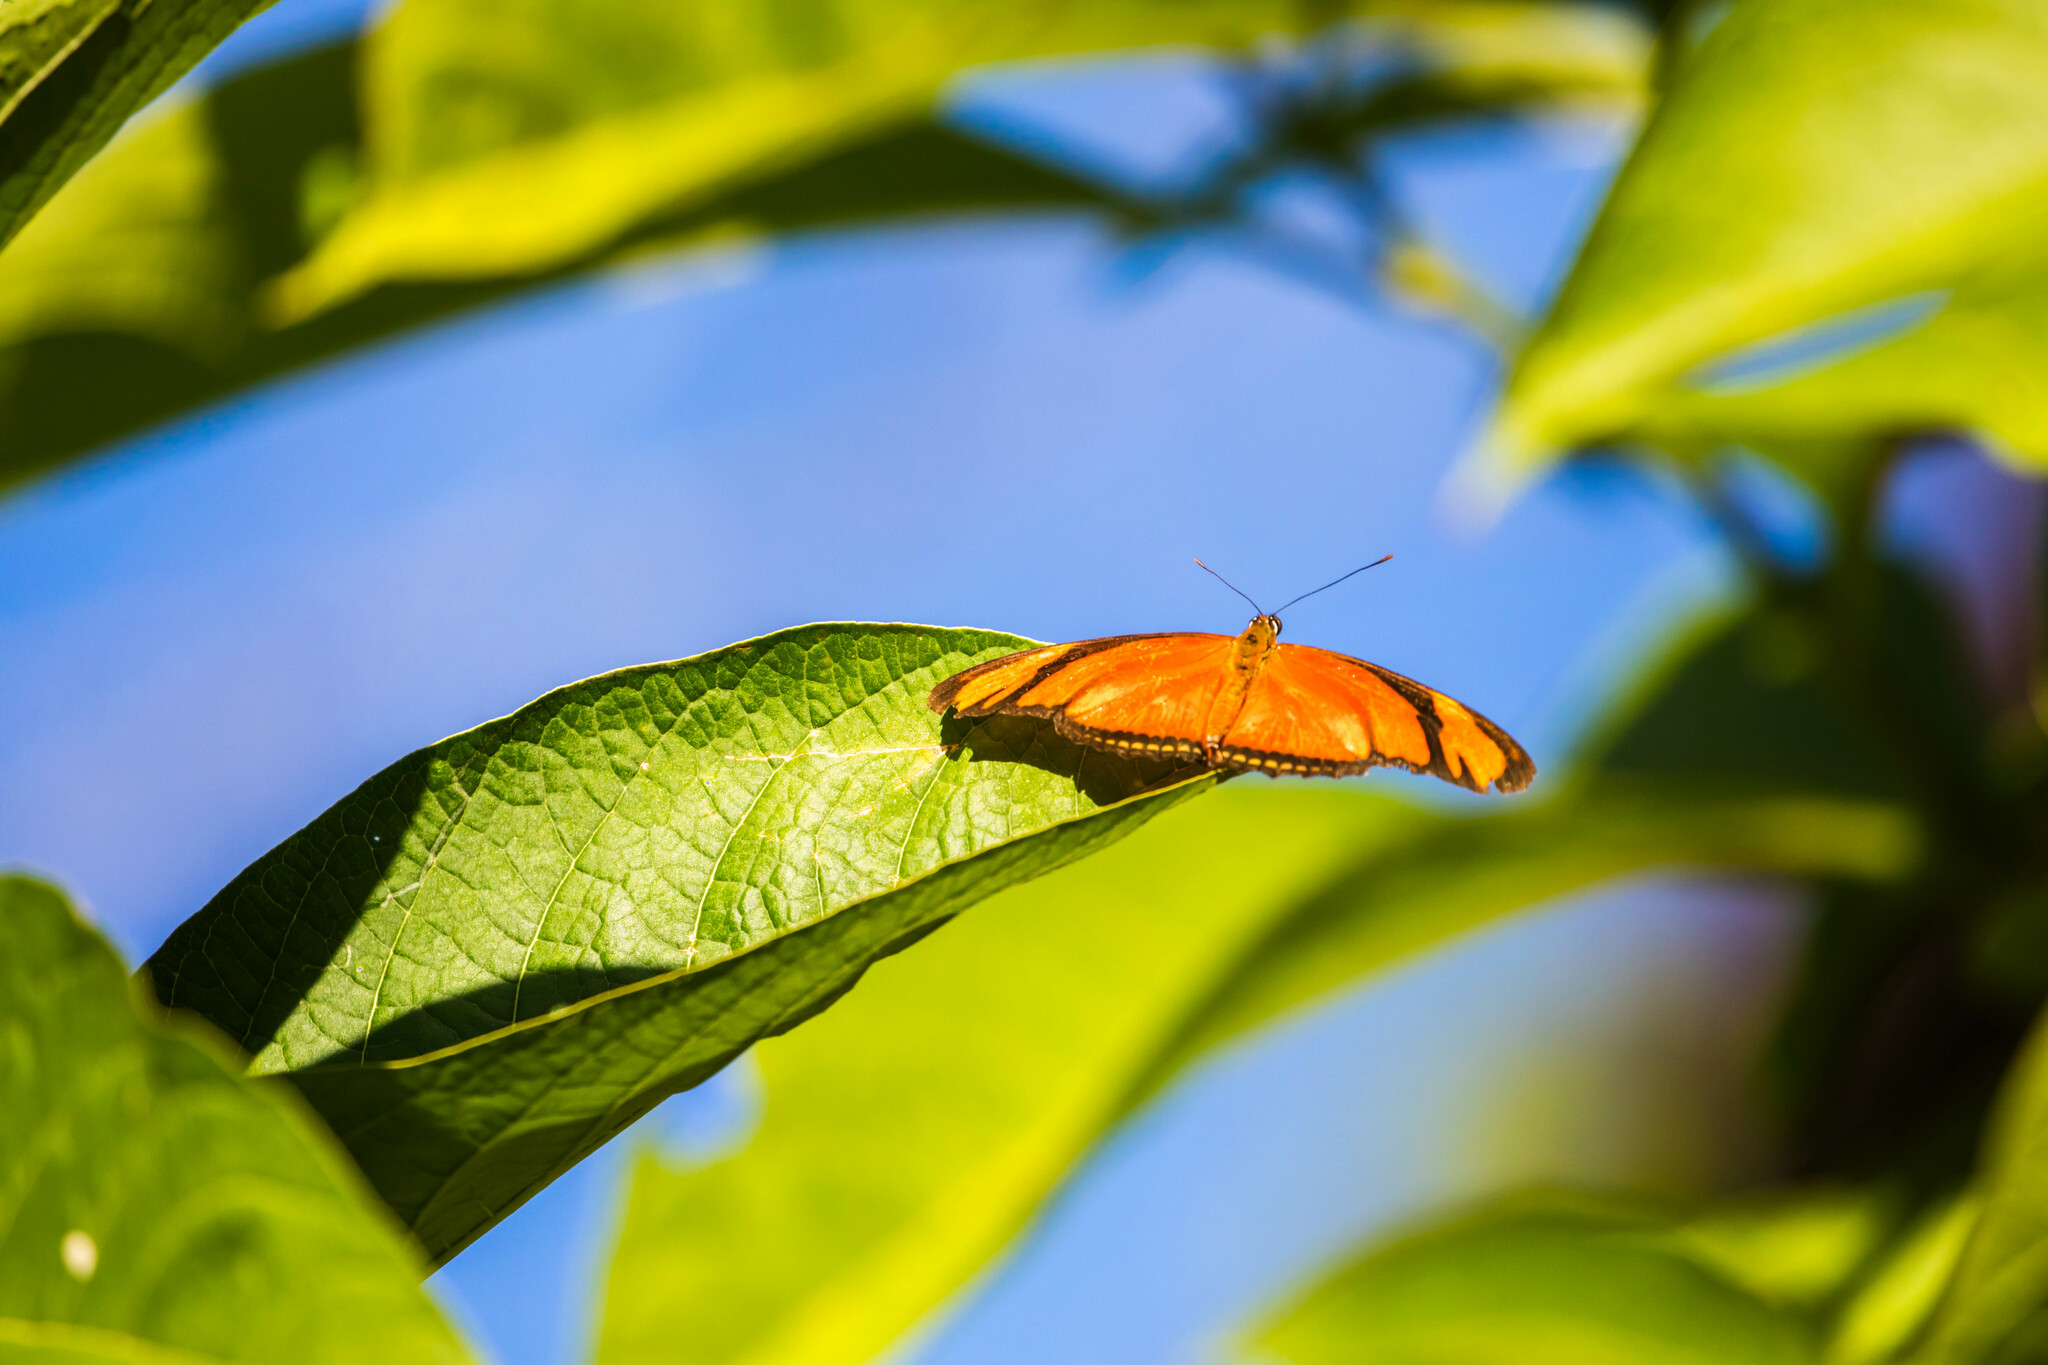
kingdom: Animalia
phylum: Arthropoda
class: Insecta
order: Lepidoptera
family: Nymphalidae
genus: Dryas
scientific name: Dryas iulia
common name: Flambeau
